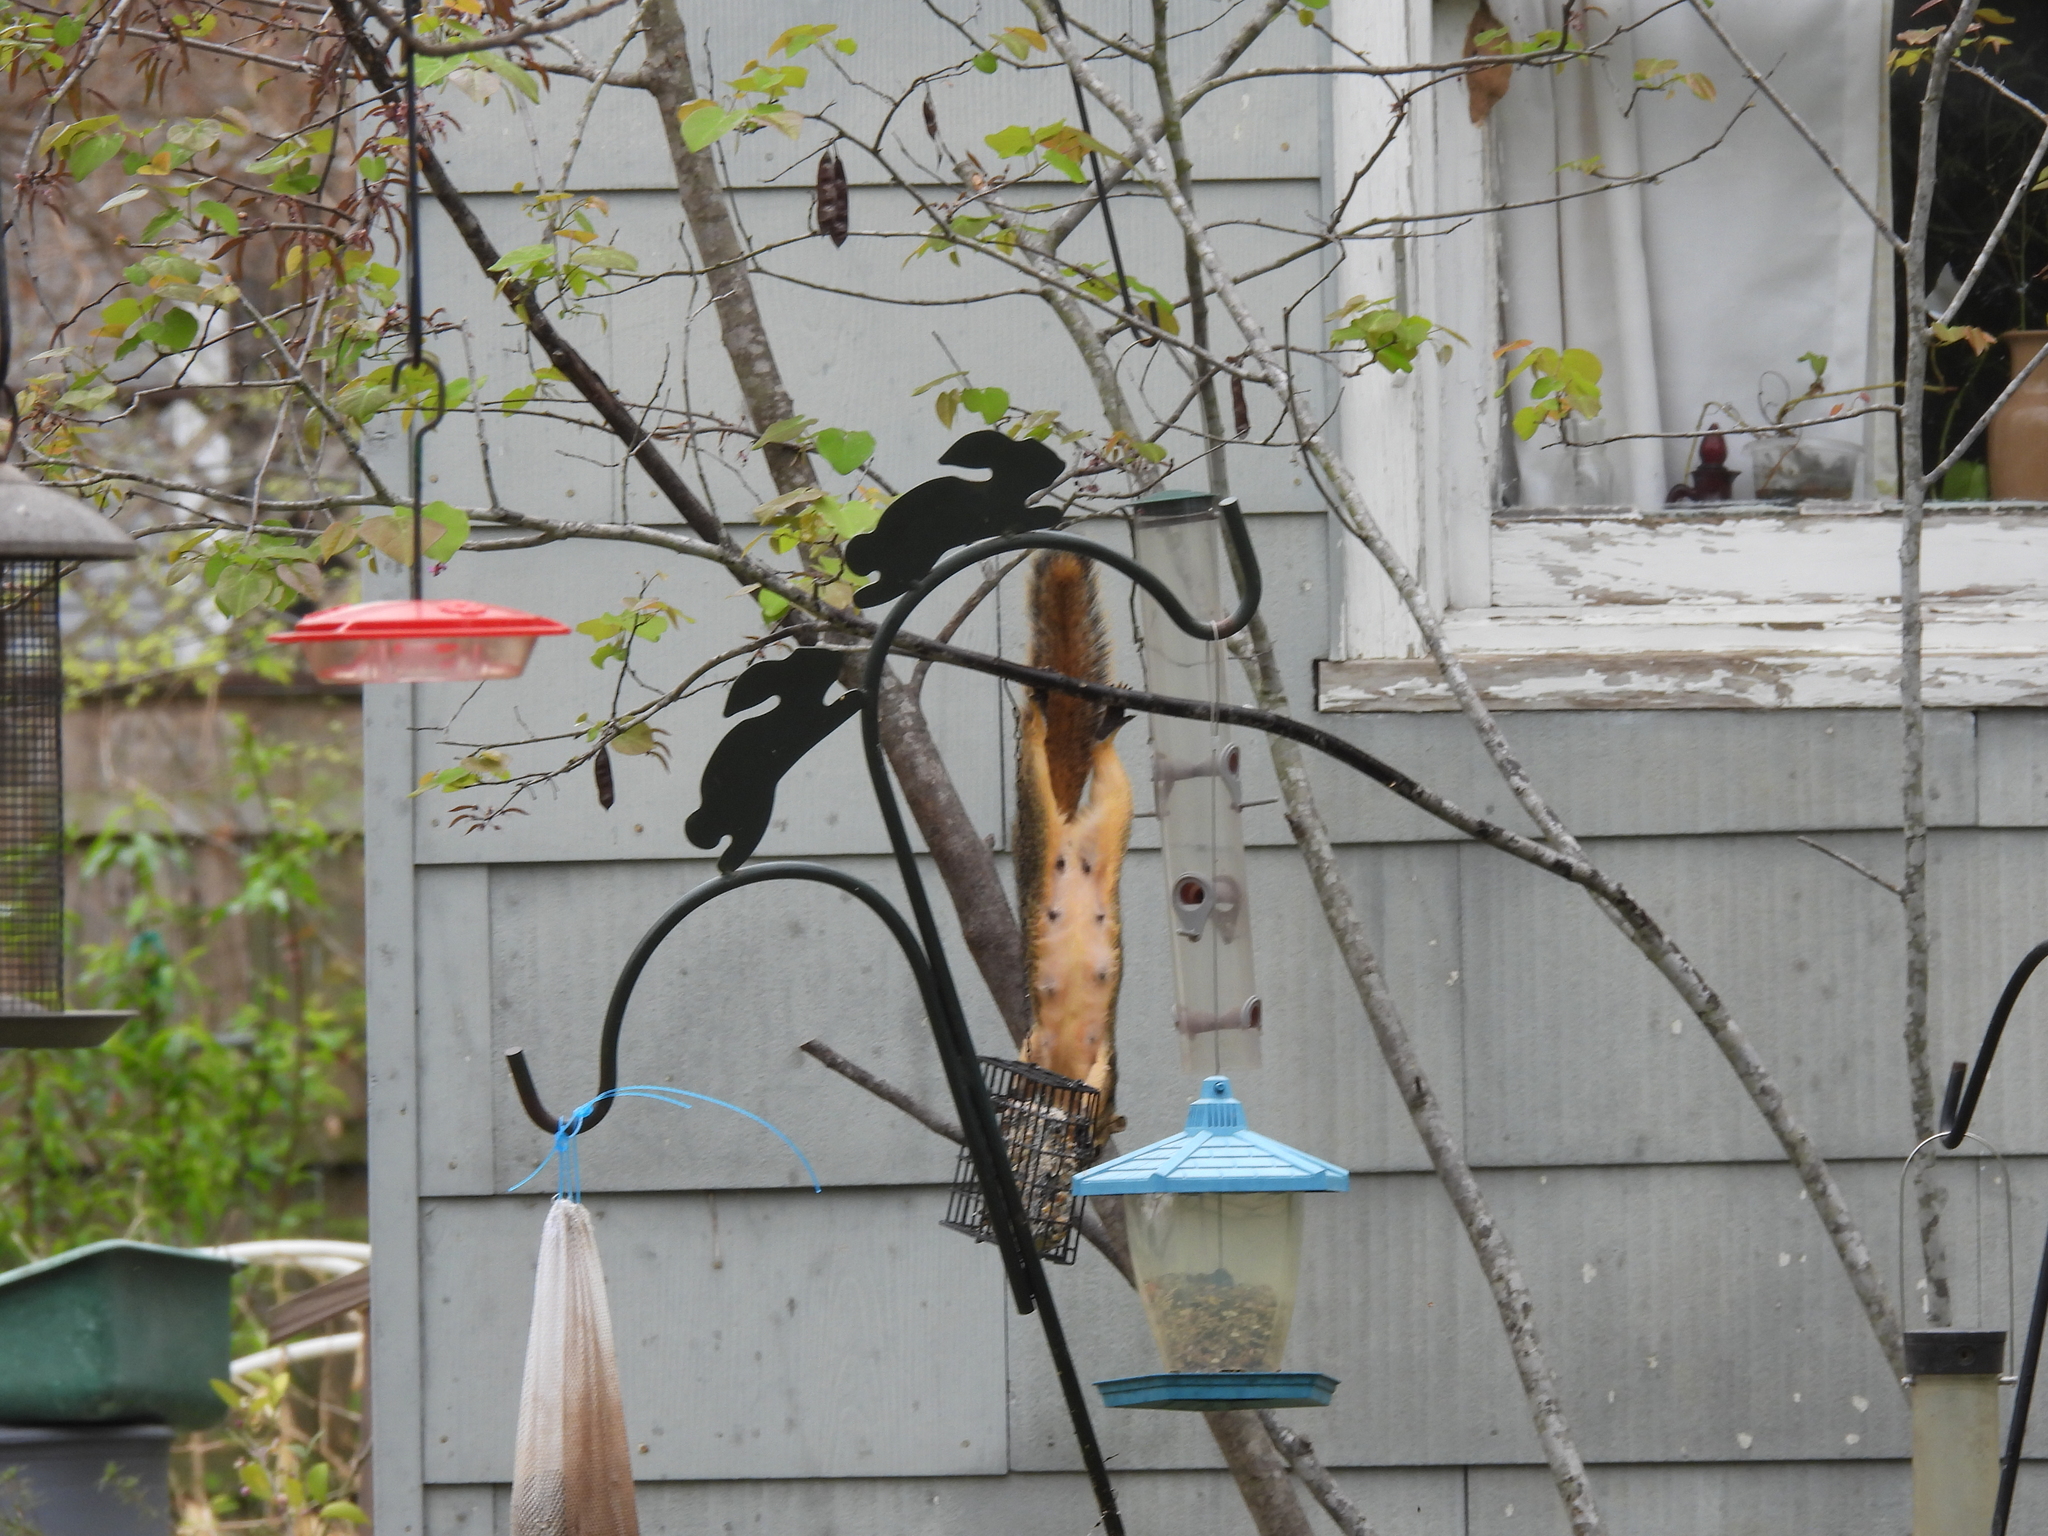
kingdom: Animalia
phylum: Chordata
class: Mammalia
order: Rodentia
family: Sciuridae
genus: Sciurus
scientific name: Sciurus niger
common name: Fox squirrel
